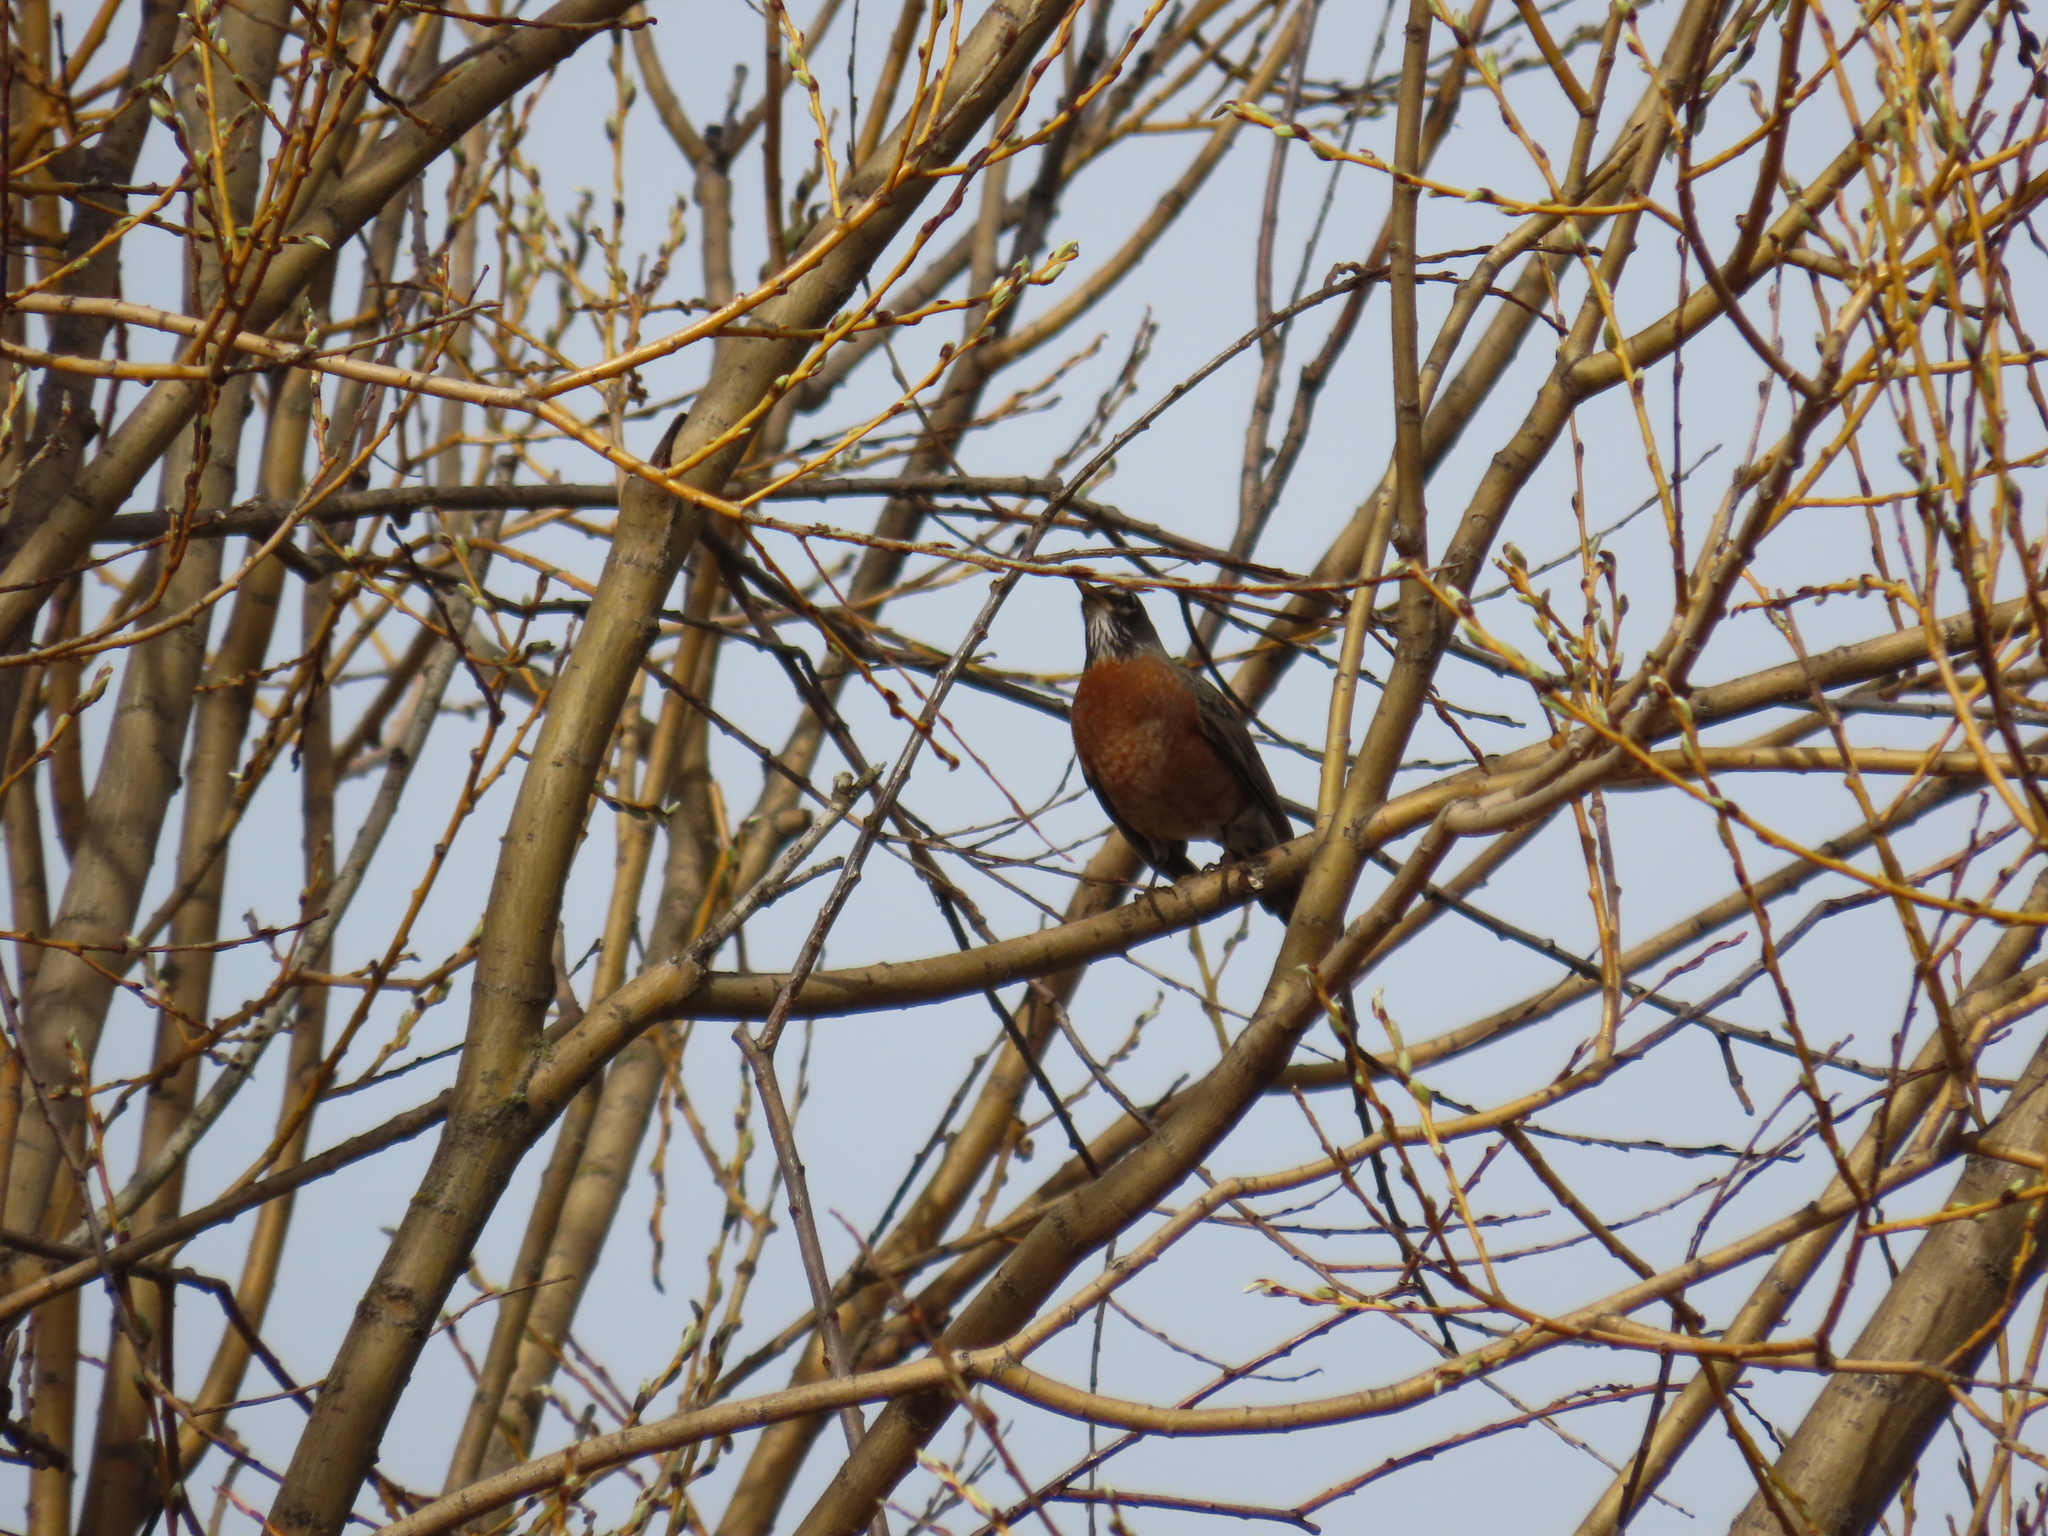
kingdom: Animalia
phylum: Chordata
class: Aves
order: Passeriformes
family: Turdidae
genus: Turdus
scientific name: Turdus migratorius
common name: American robin
